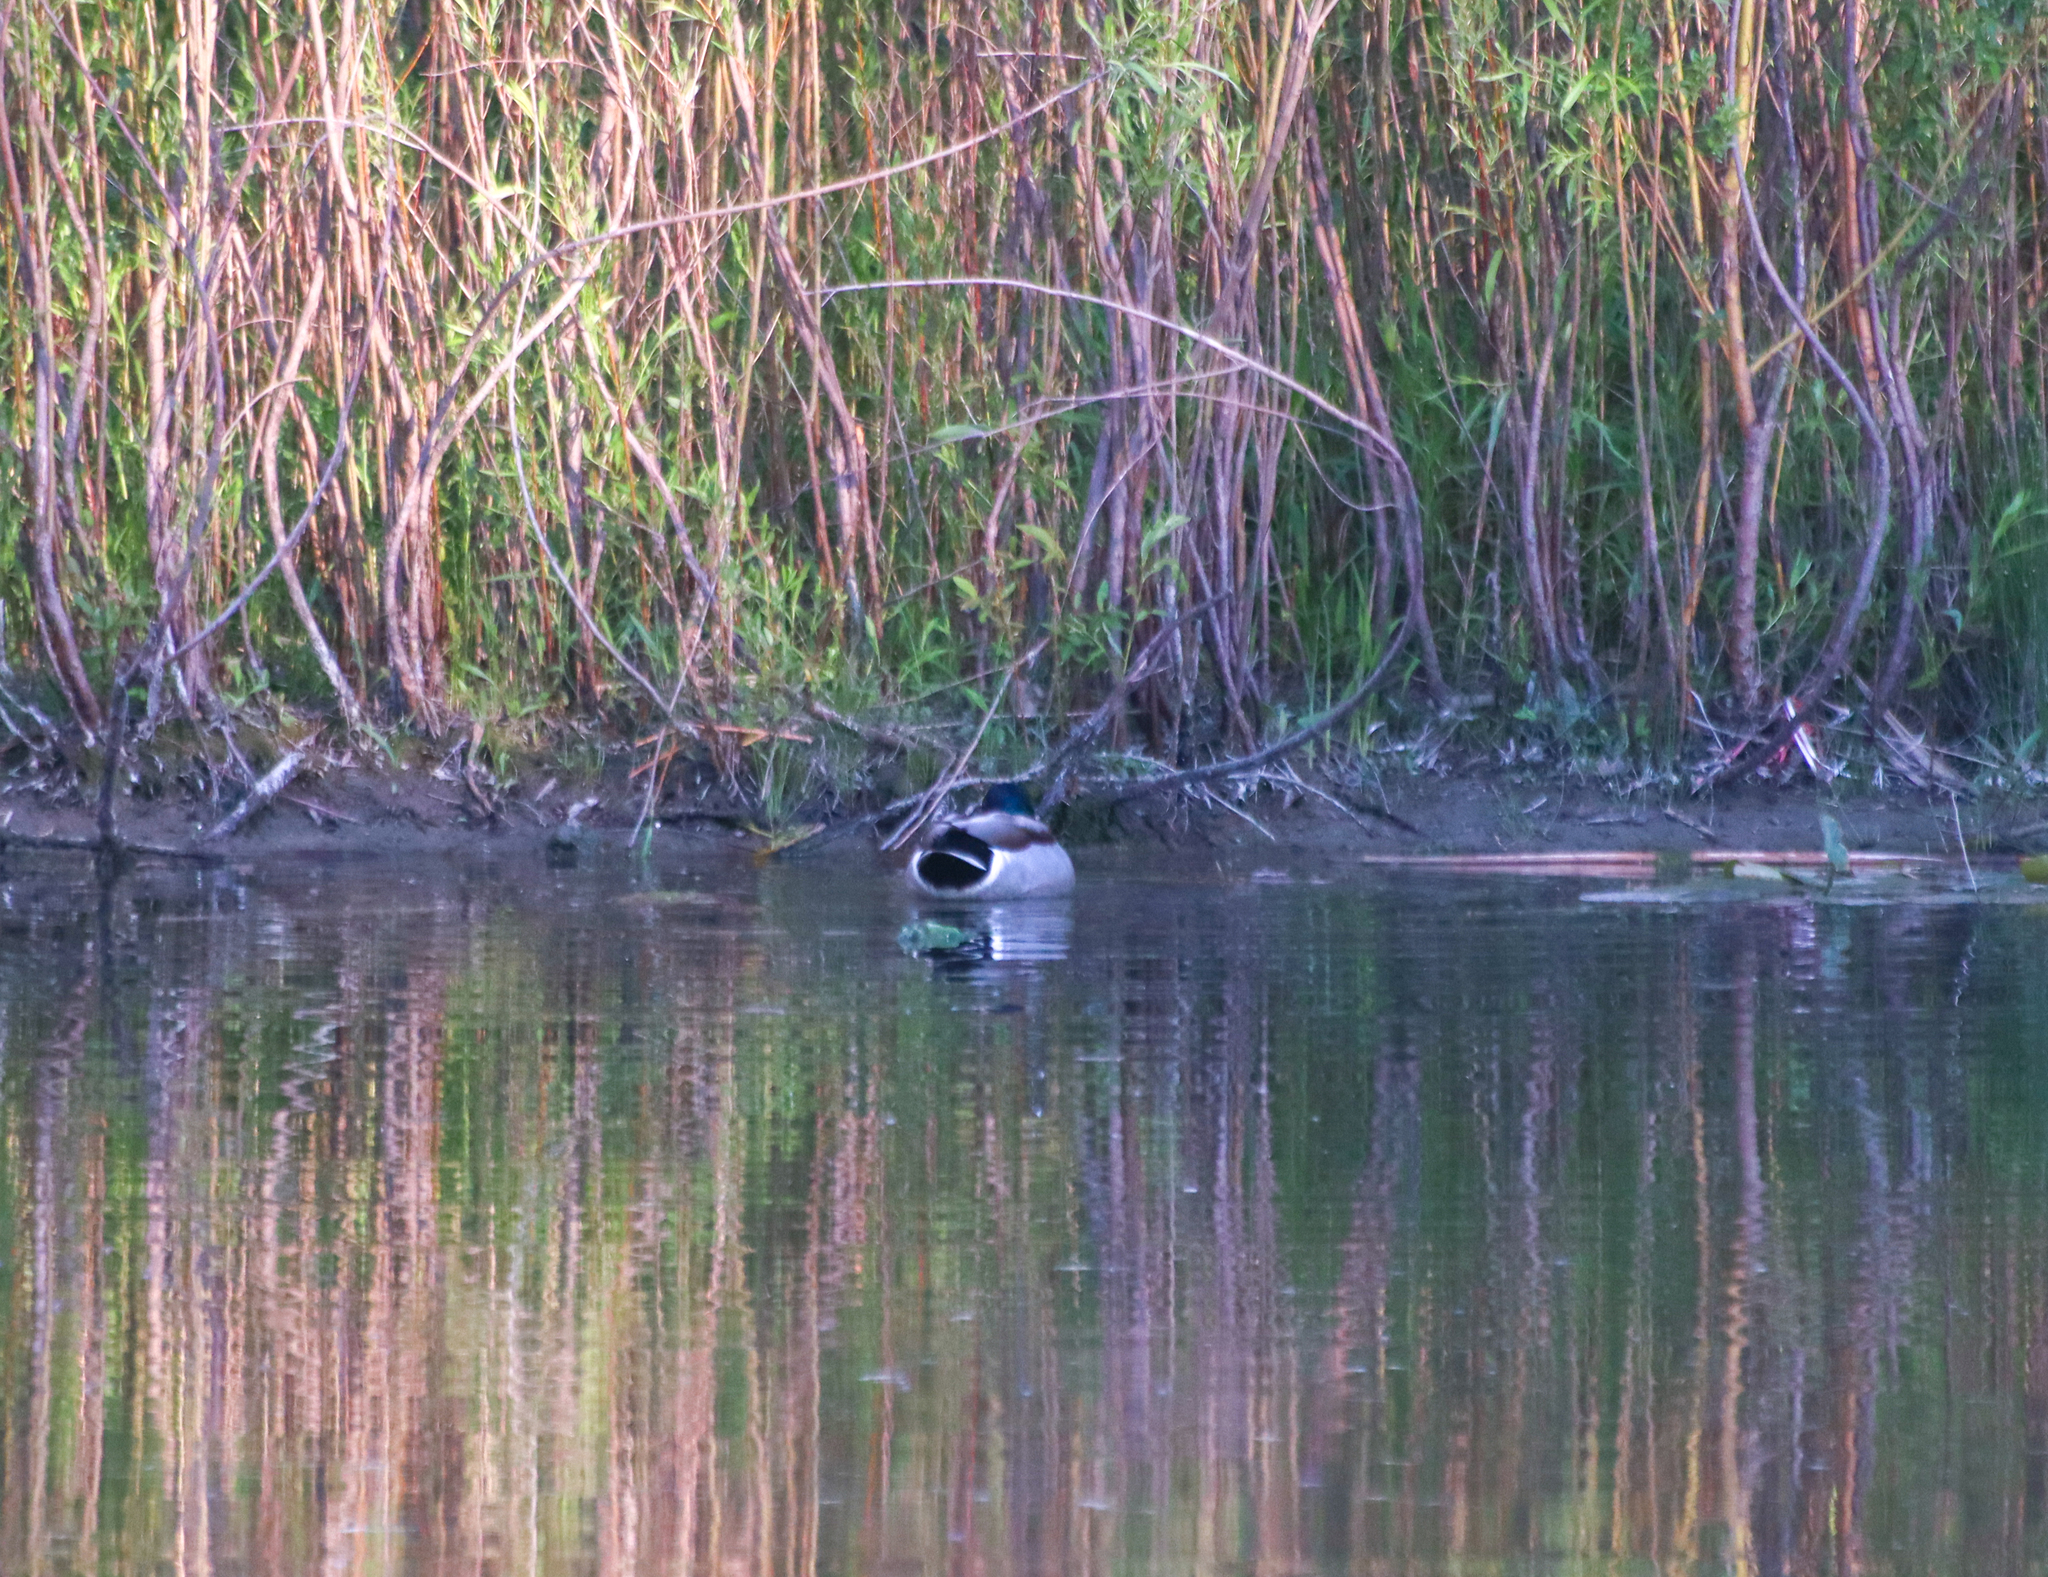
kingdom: Animalia
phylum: Chordata
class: Aves
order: Anseriformes
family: Anatidae
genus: Anas
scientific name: Anas platyrhynchos
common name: Mallard
